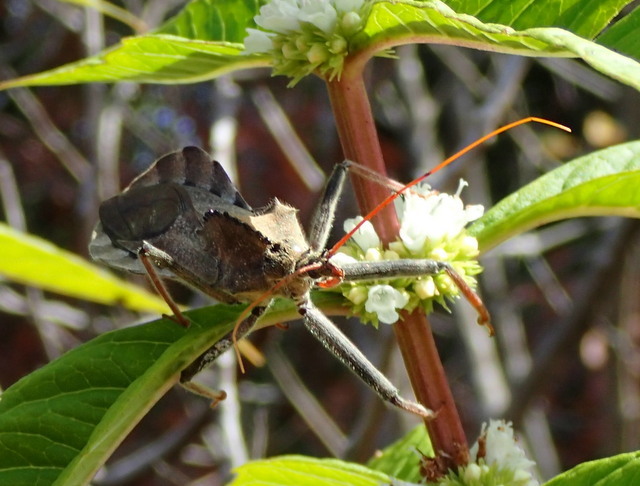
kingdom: Animalia
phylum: Arthropoda
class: Insecta
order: Hemiptera
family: Reduviidae
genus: Arilus
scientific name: Arilus cristatus
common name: North american wheel bug
